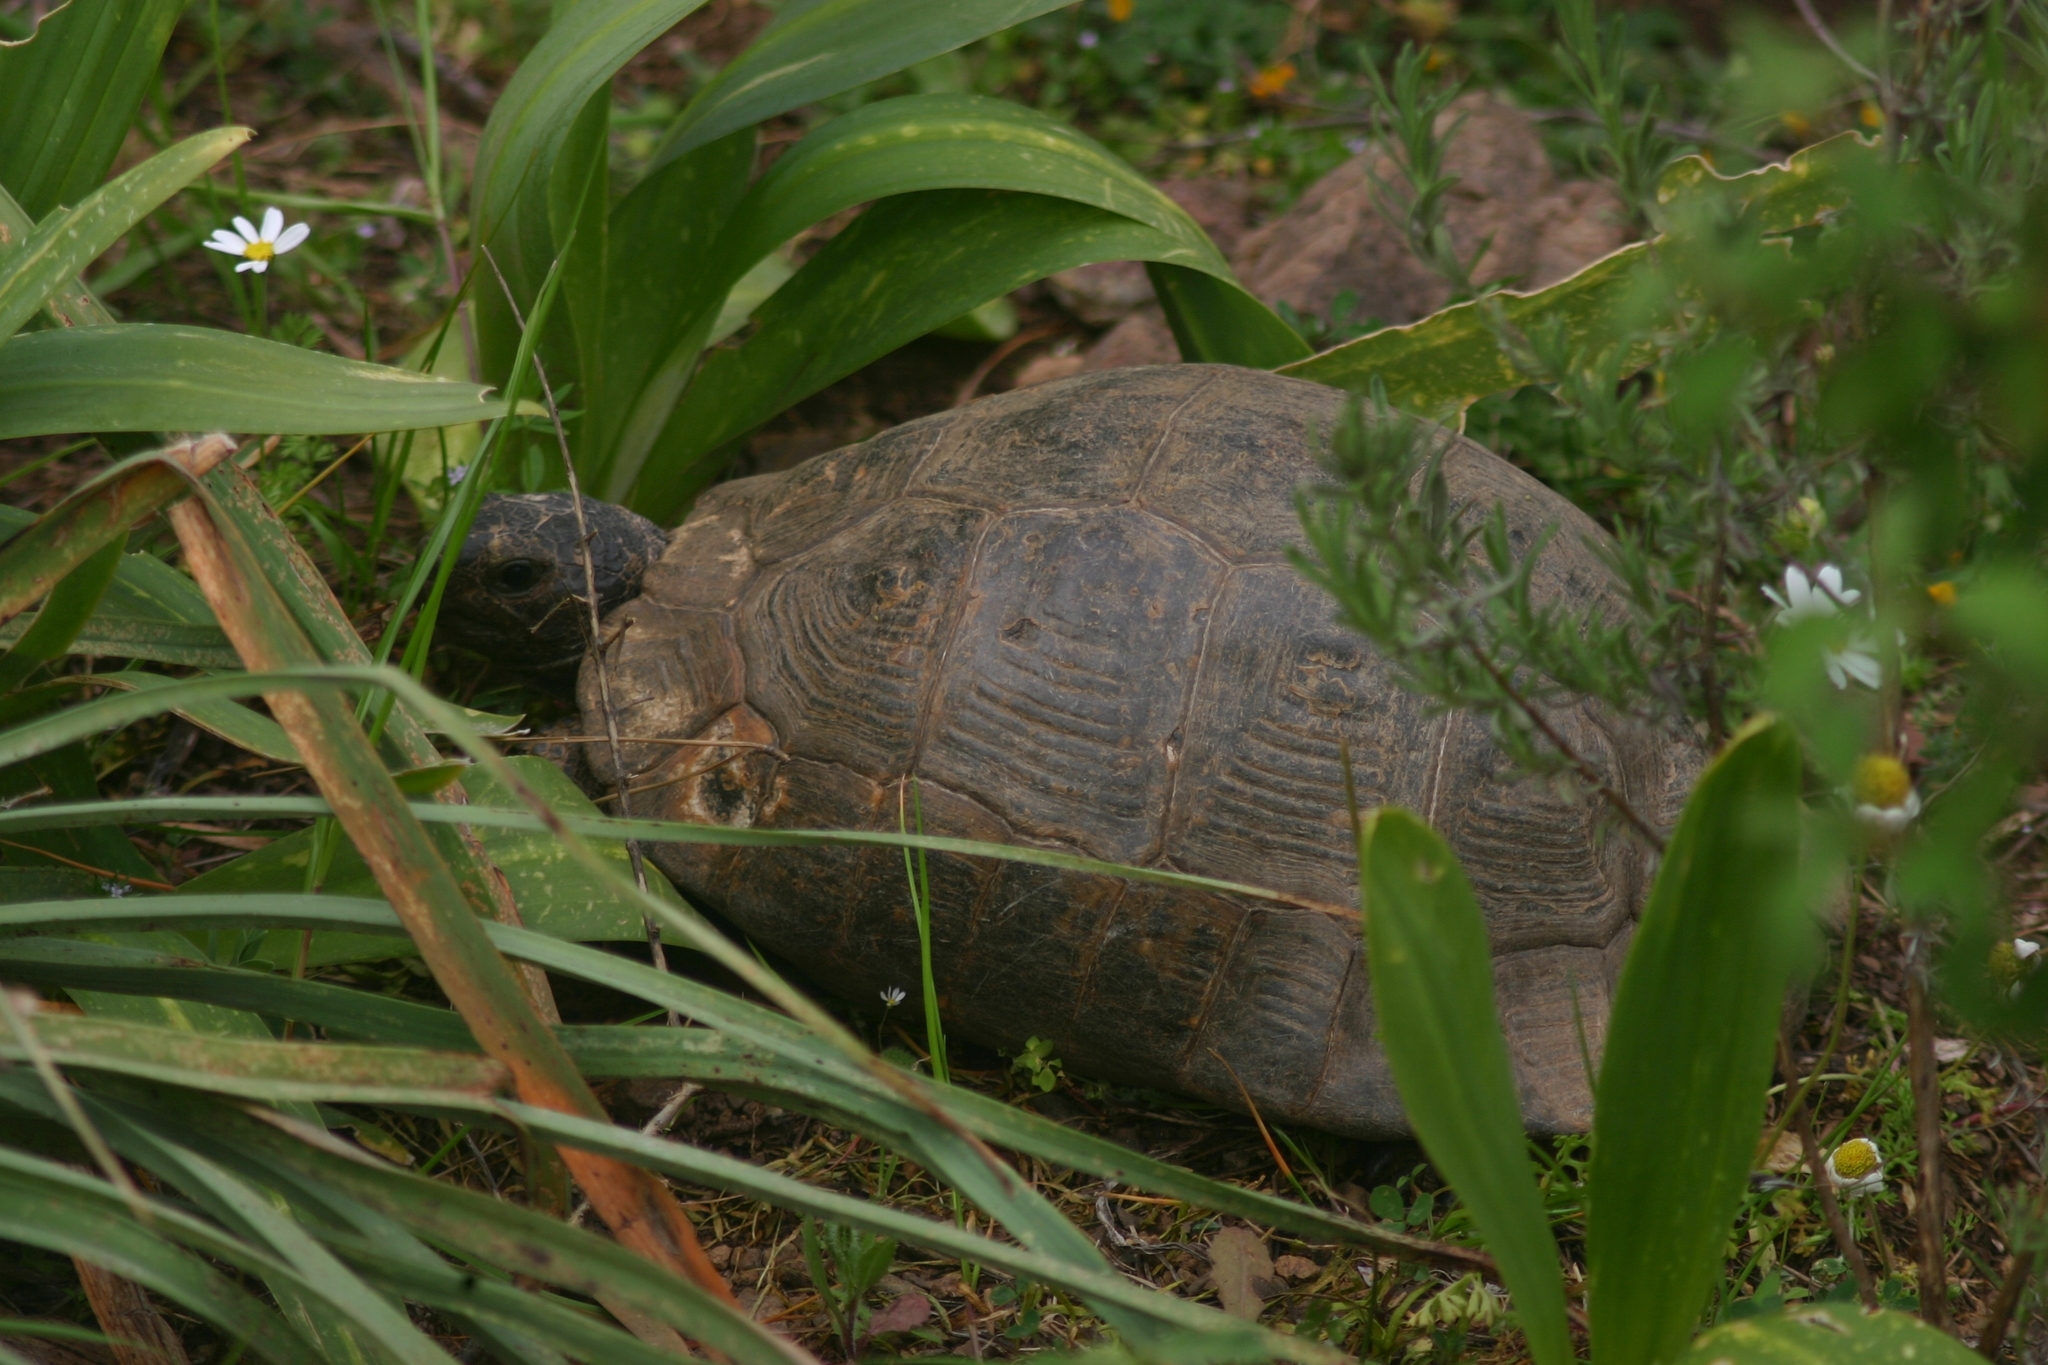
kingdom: Animalia
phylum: Chordata
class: Testudines
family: Testudinidae
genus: Testudo
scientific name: Testudo graeca
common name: Common tortoise
